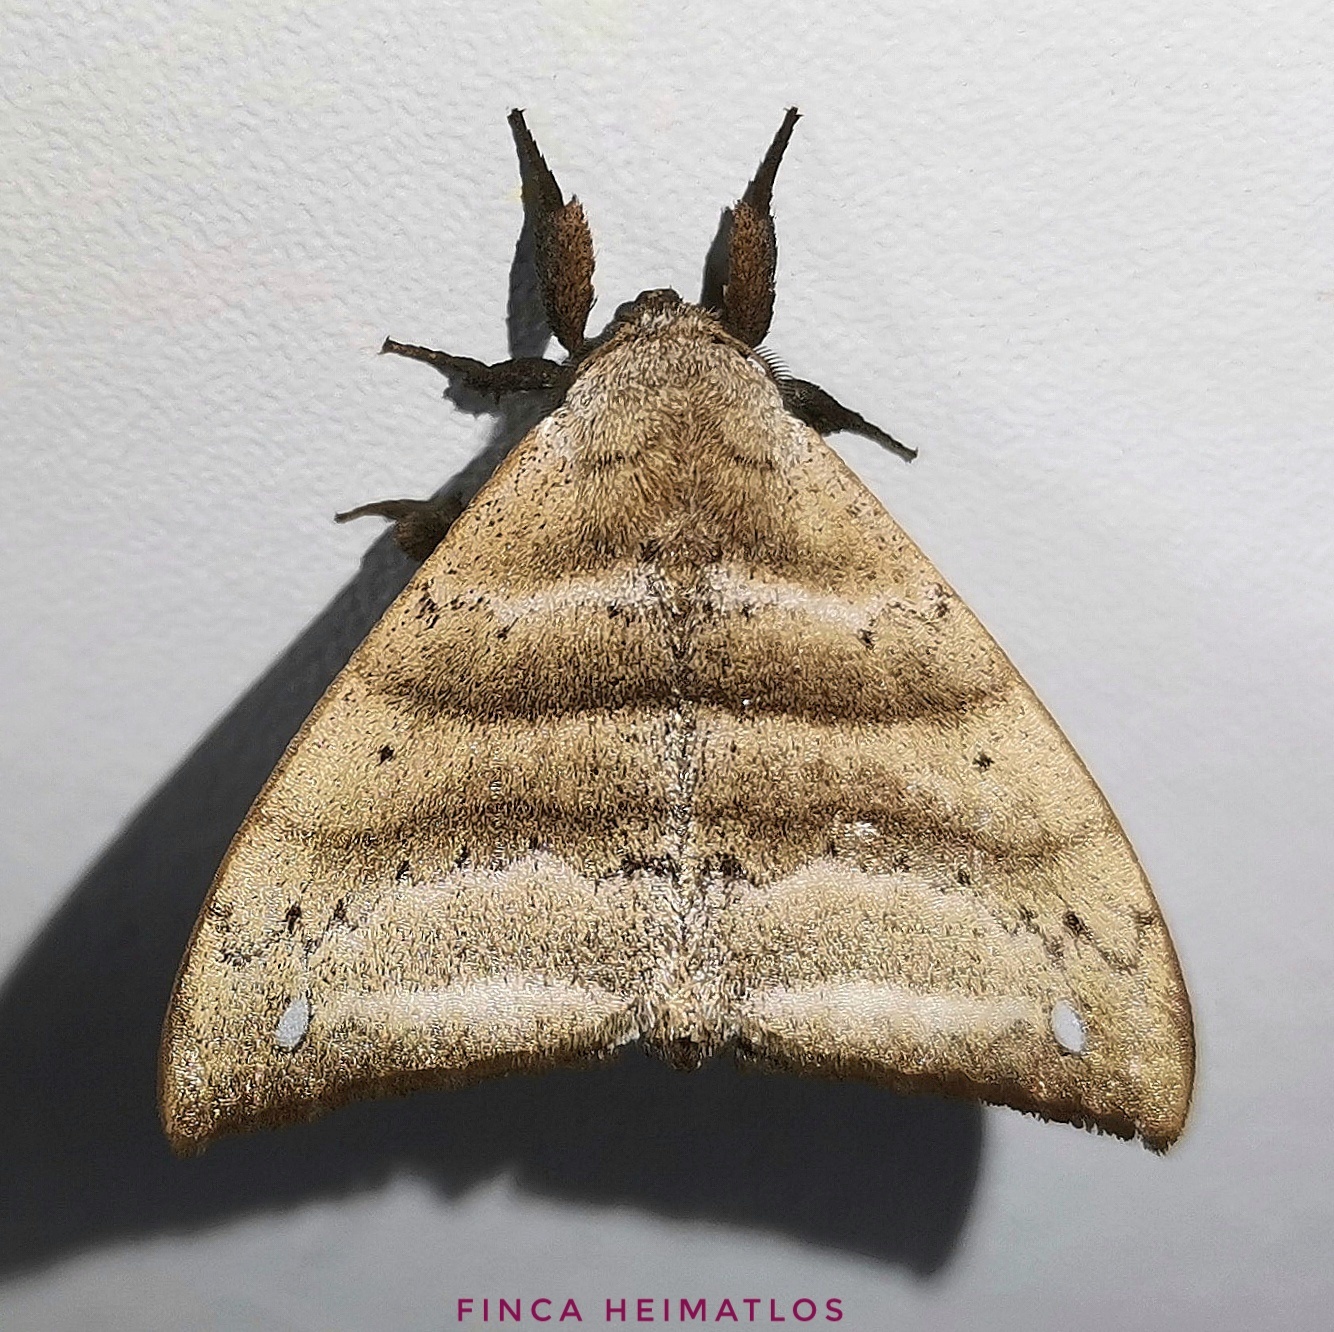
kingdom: Animalia
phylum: Arthropoda
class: Insecta
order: Lepidoptera
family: Apatelodidae
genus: Falcatelodes
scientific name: Falcatelodes anava
